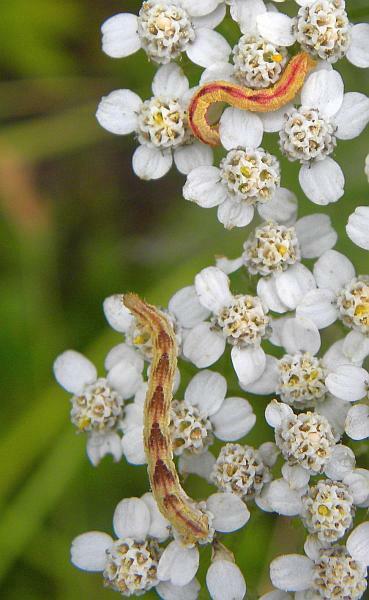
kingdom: Animalia
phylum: Arthropoda
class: Insecta
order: Lepidoptera
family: Geometridae
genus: Eupithecia
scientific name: Eupithecia miserulata
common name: Common eupithecia
